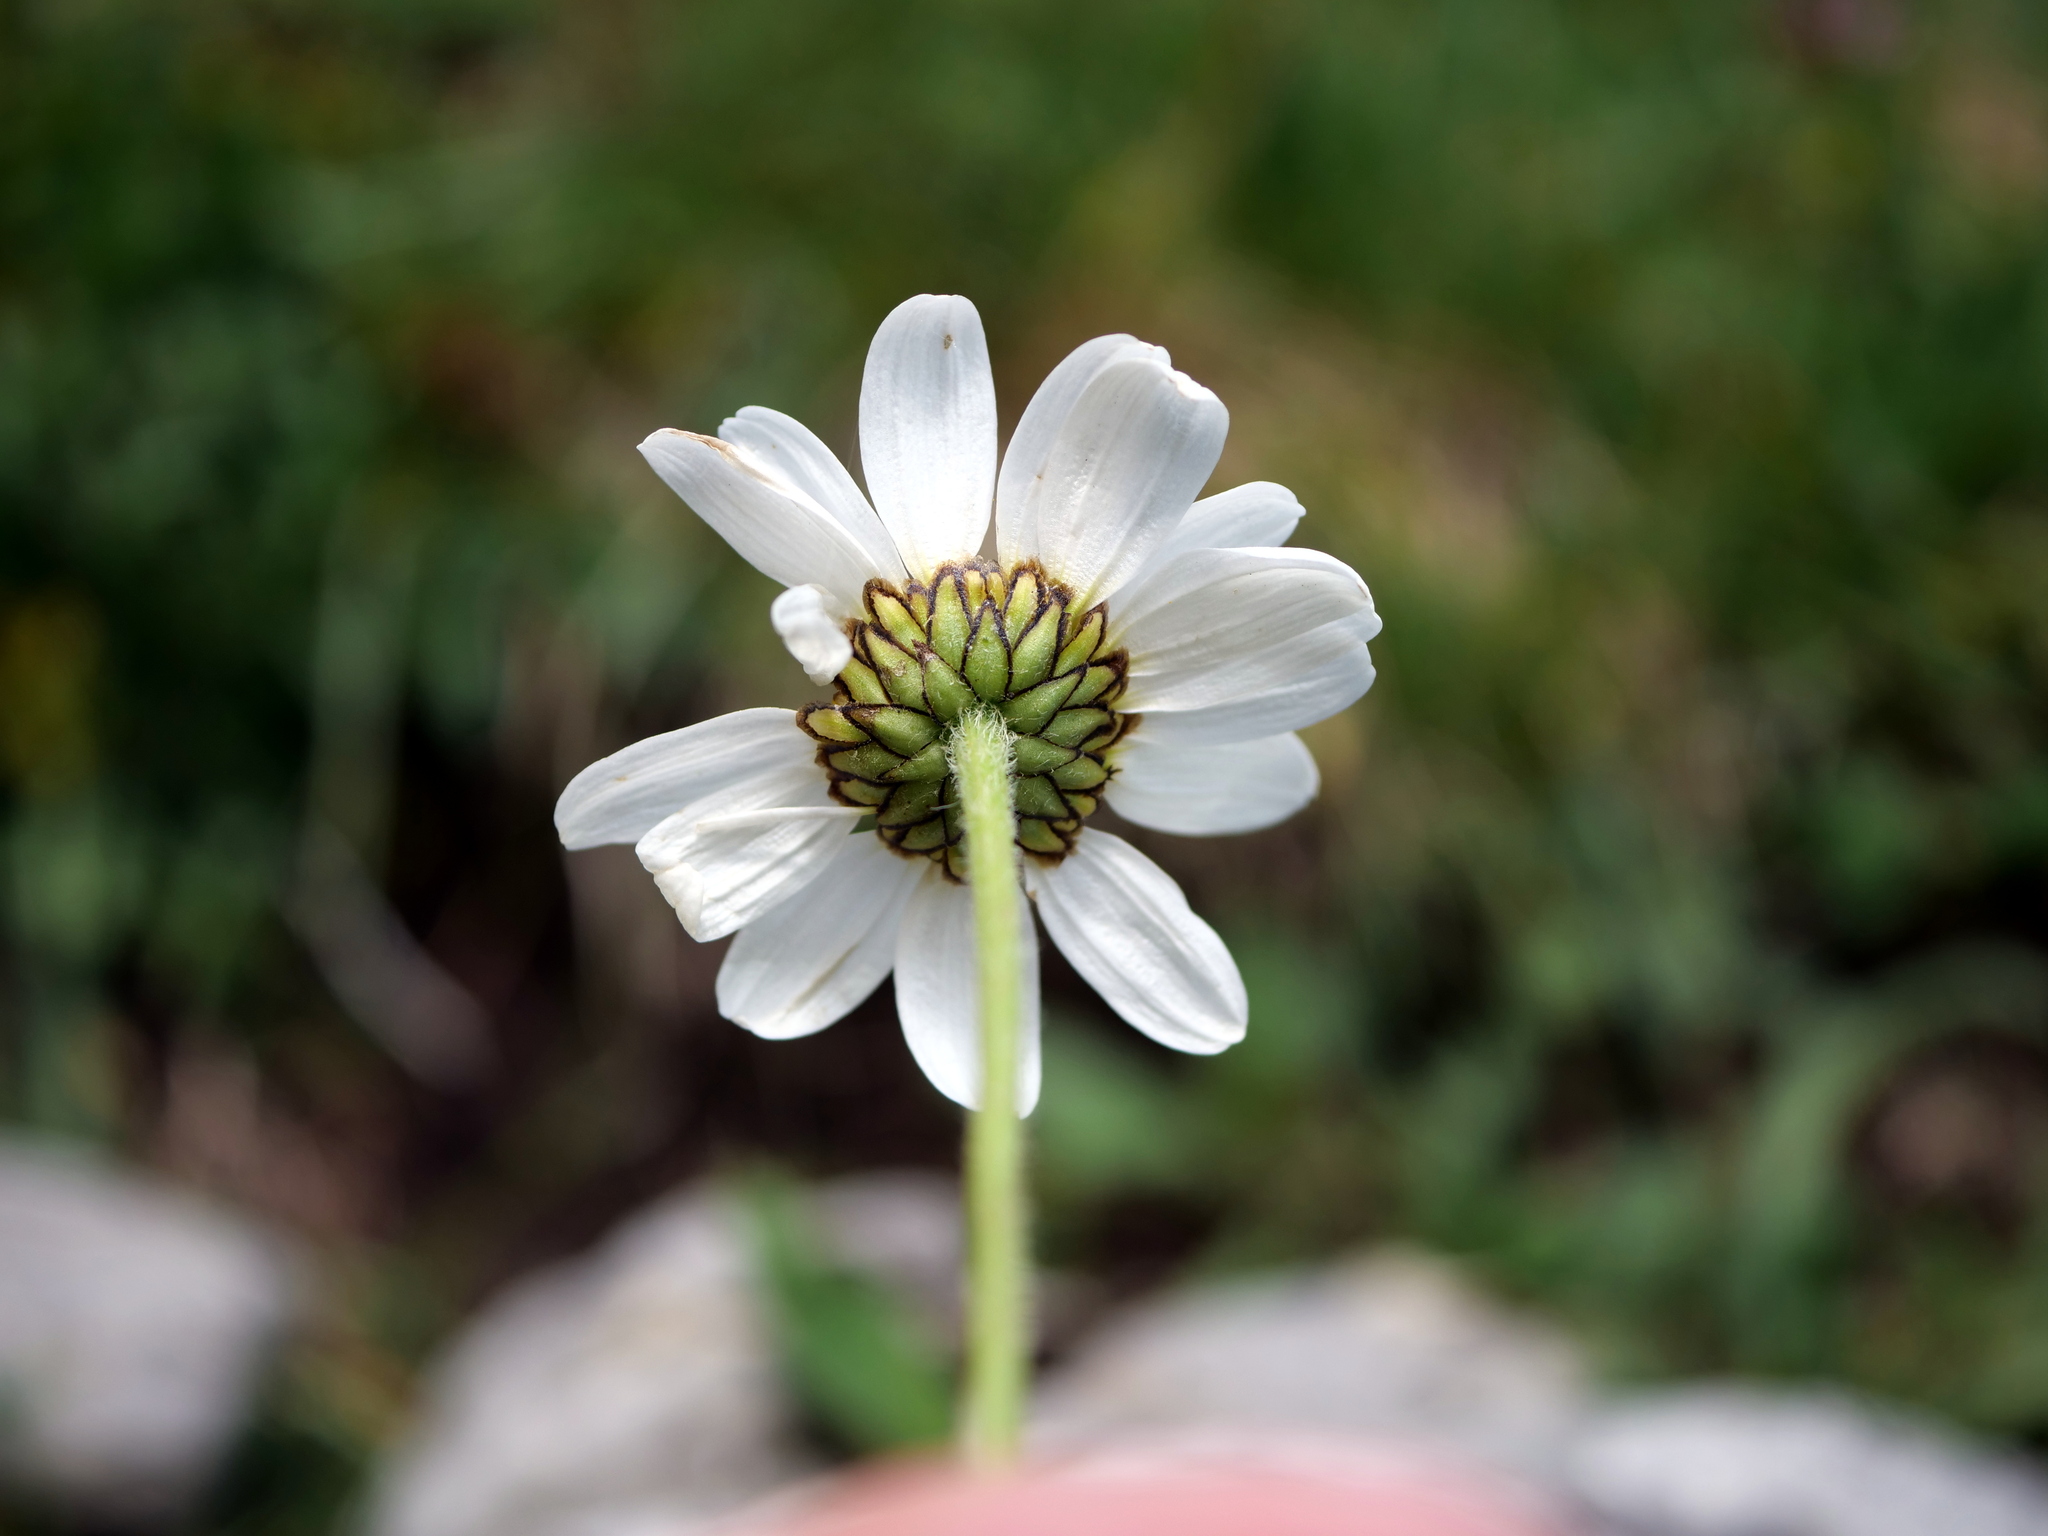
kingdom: Plantae
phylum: Tracheophyta
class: Magnoliopsida
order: Asterales
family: Asteraceae
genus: Leucanthemum
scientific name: Leucanthemum adustum
